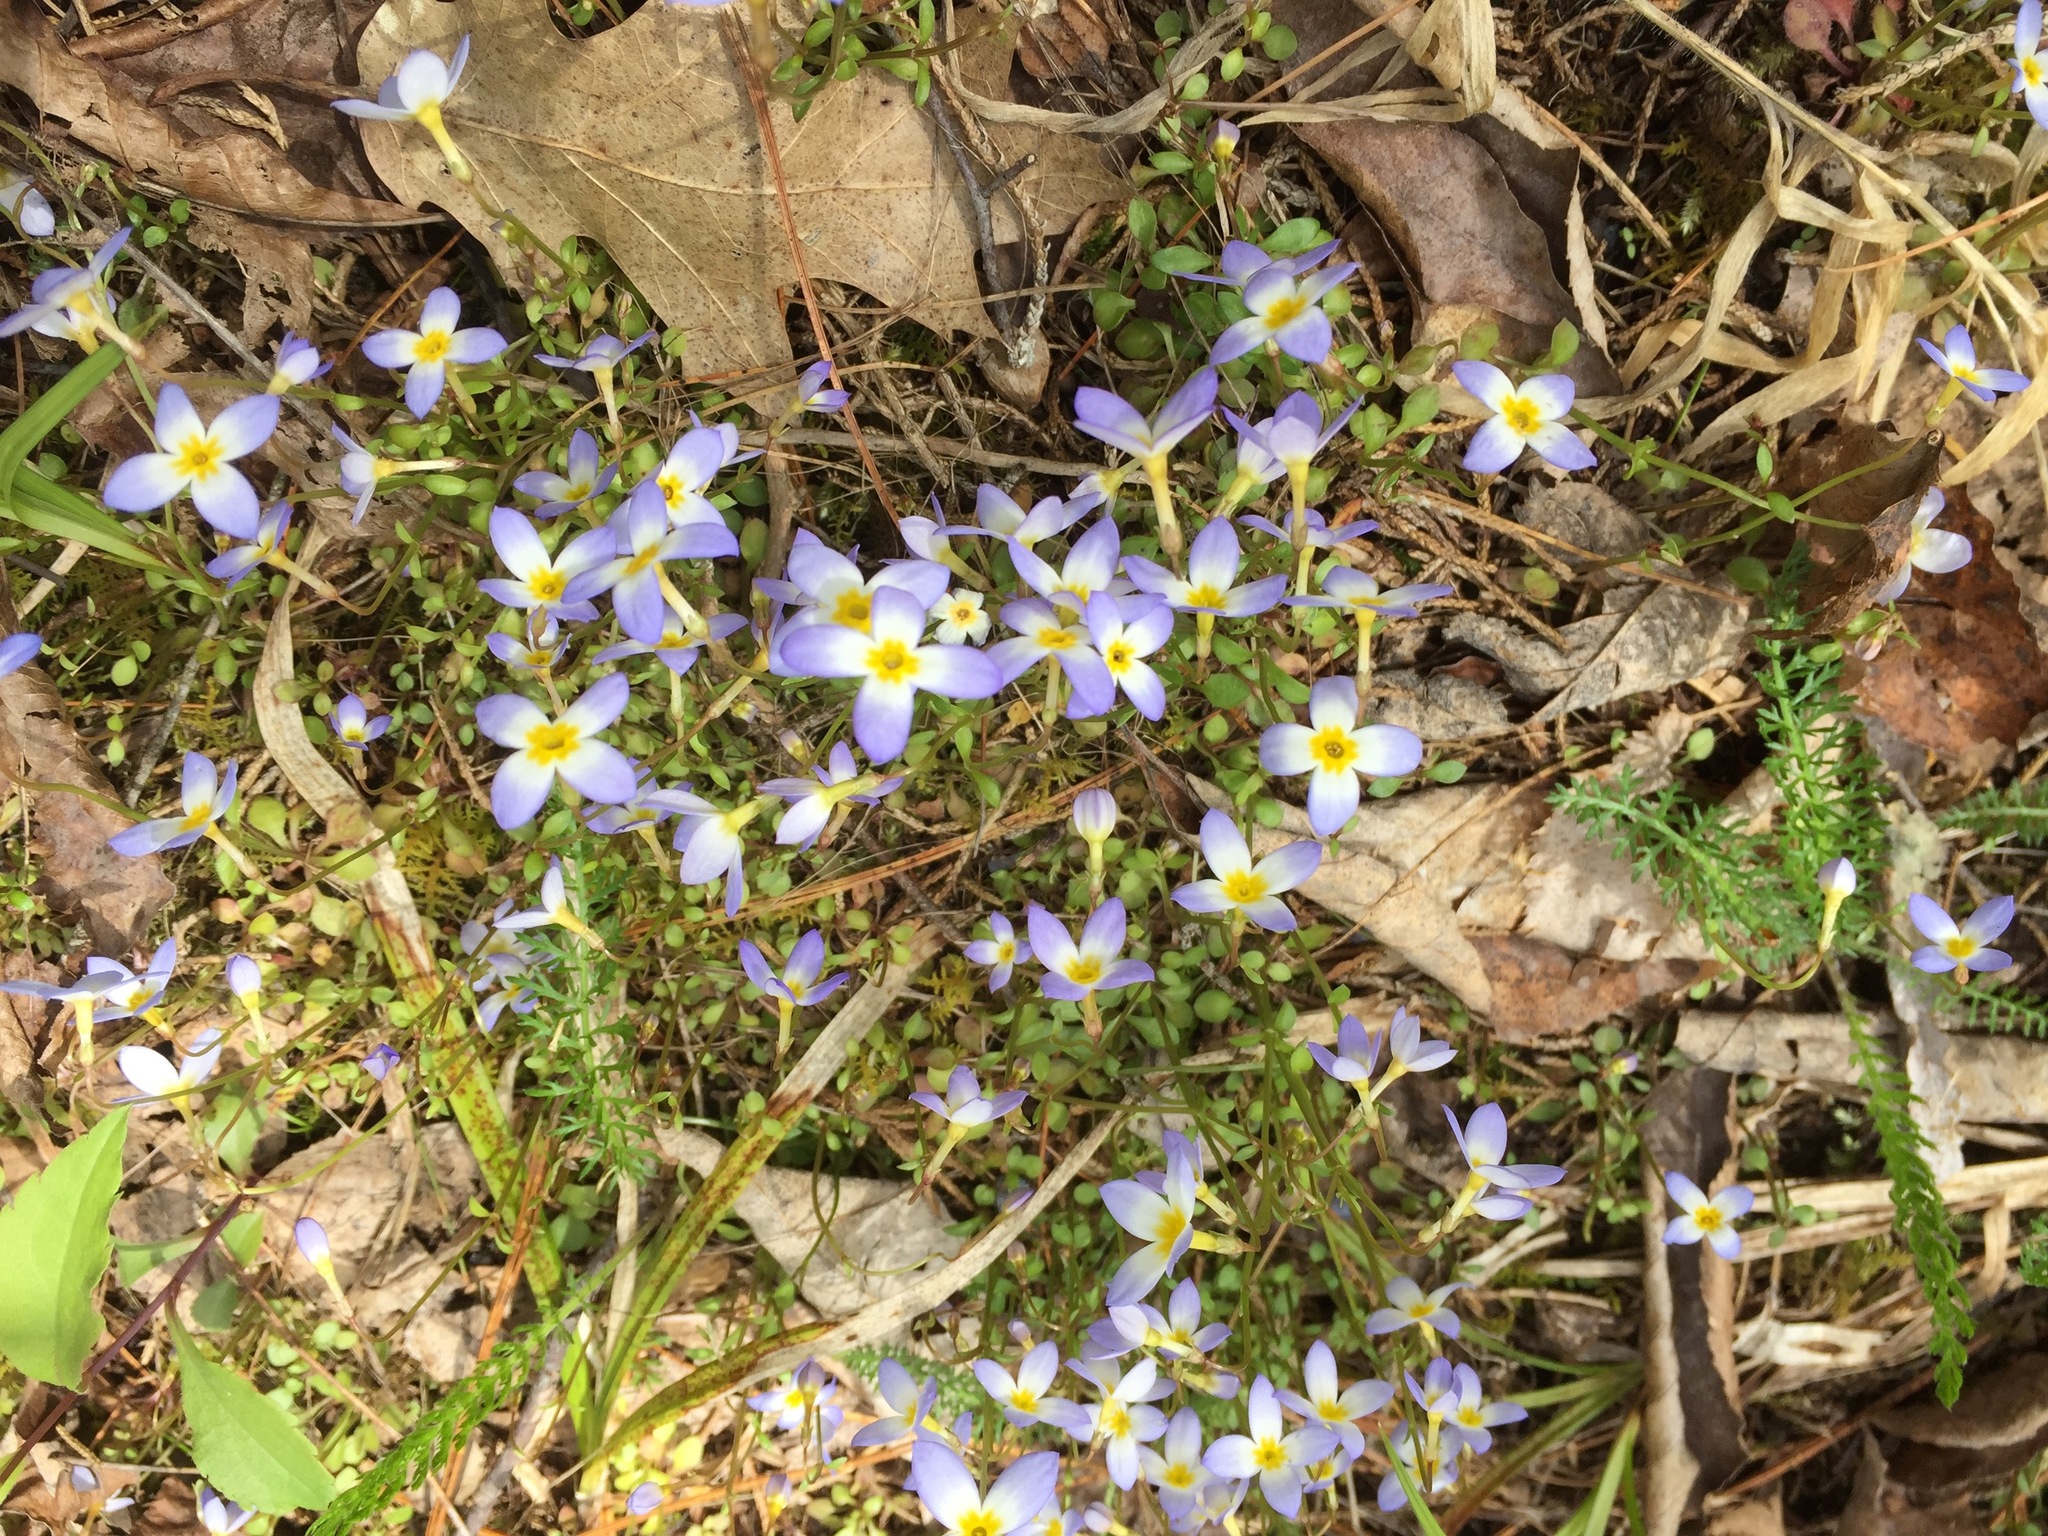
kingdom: Plantae
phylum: Tracheophyta
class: Magnoliopsida
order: Gentianales
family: Rubiaceae
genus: Houstonia
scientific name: Houstonia caerulea
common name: Bluets
